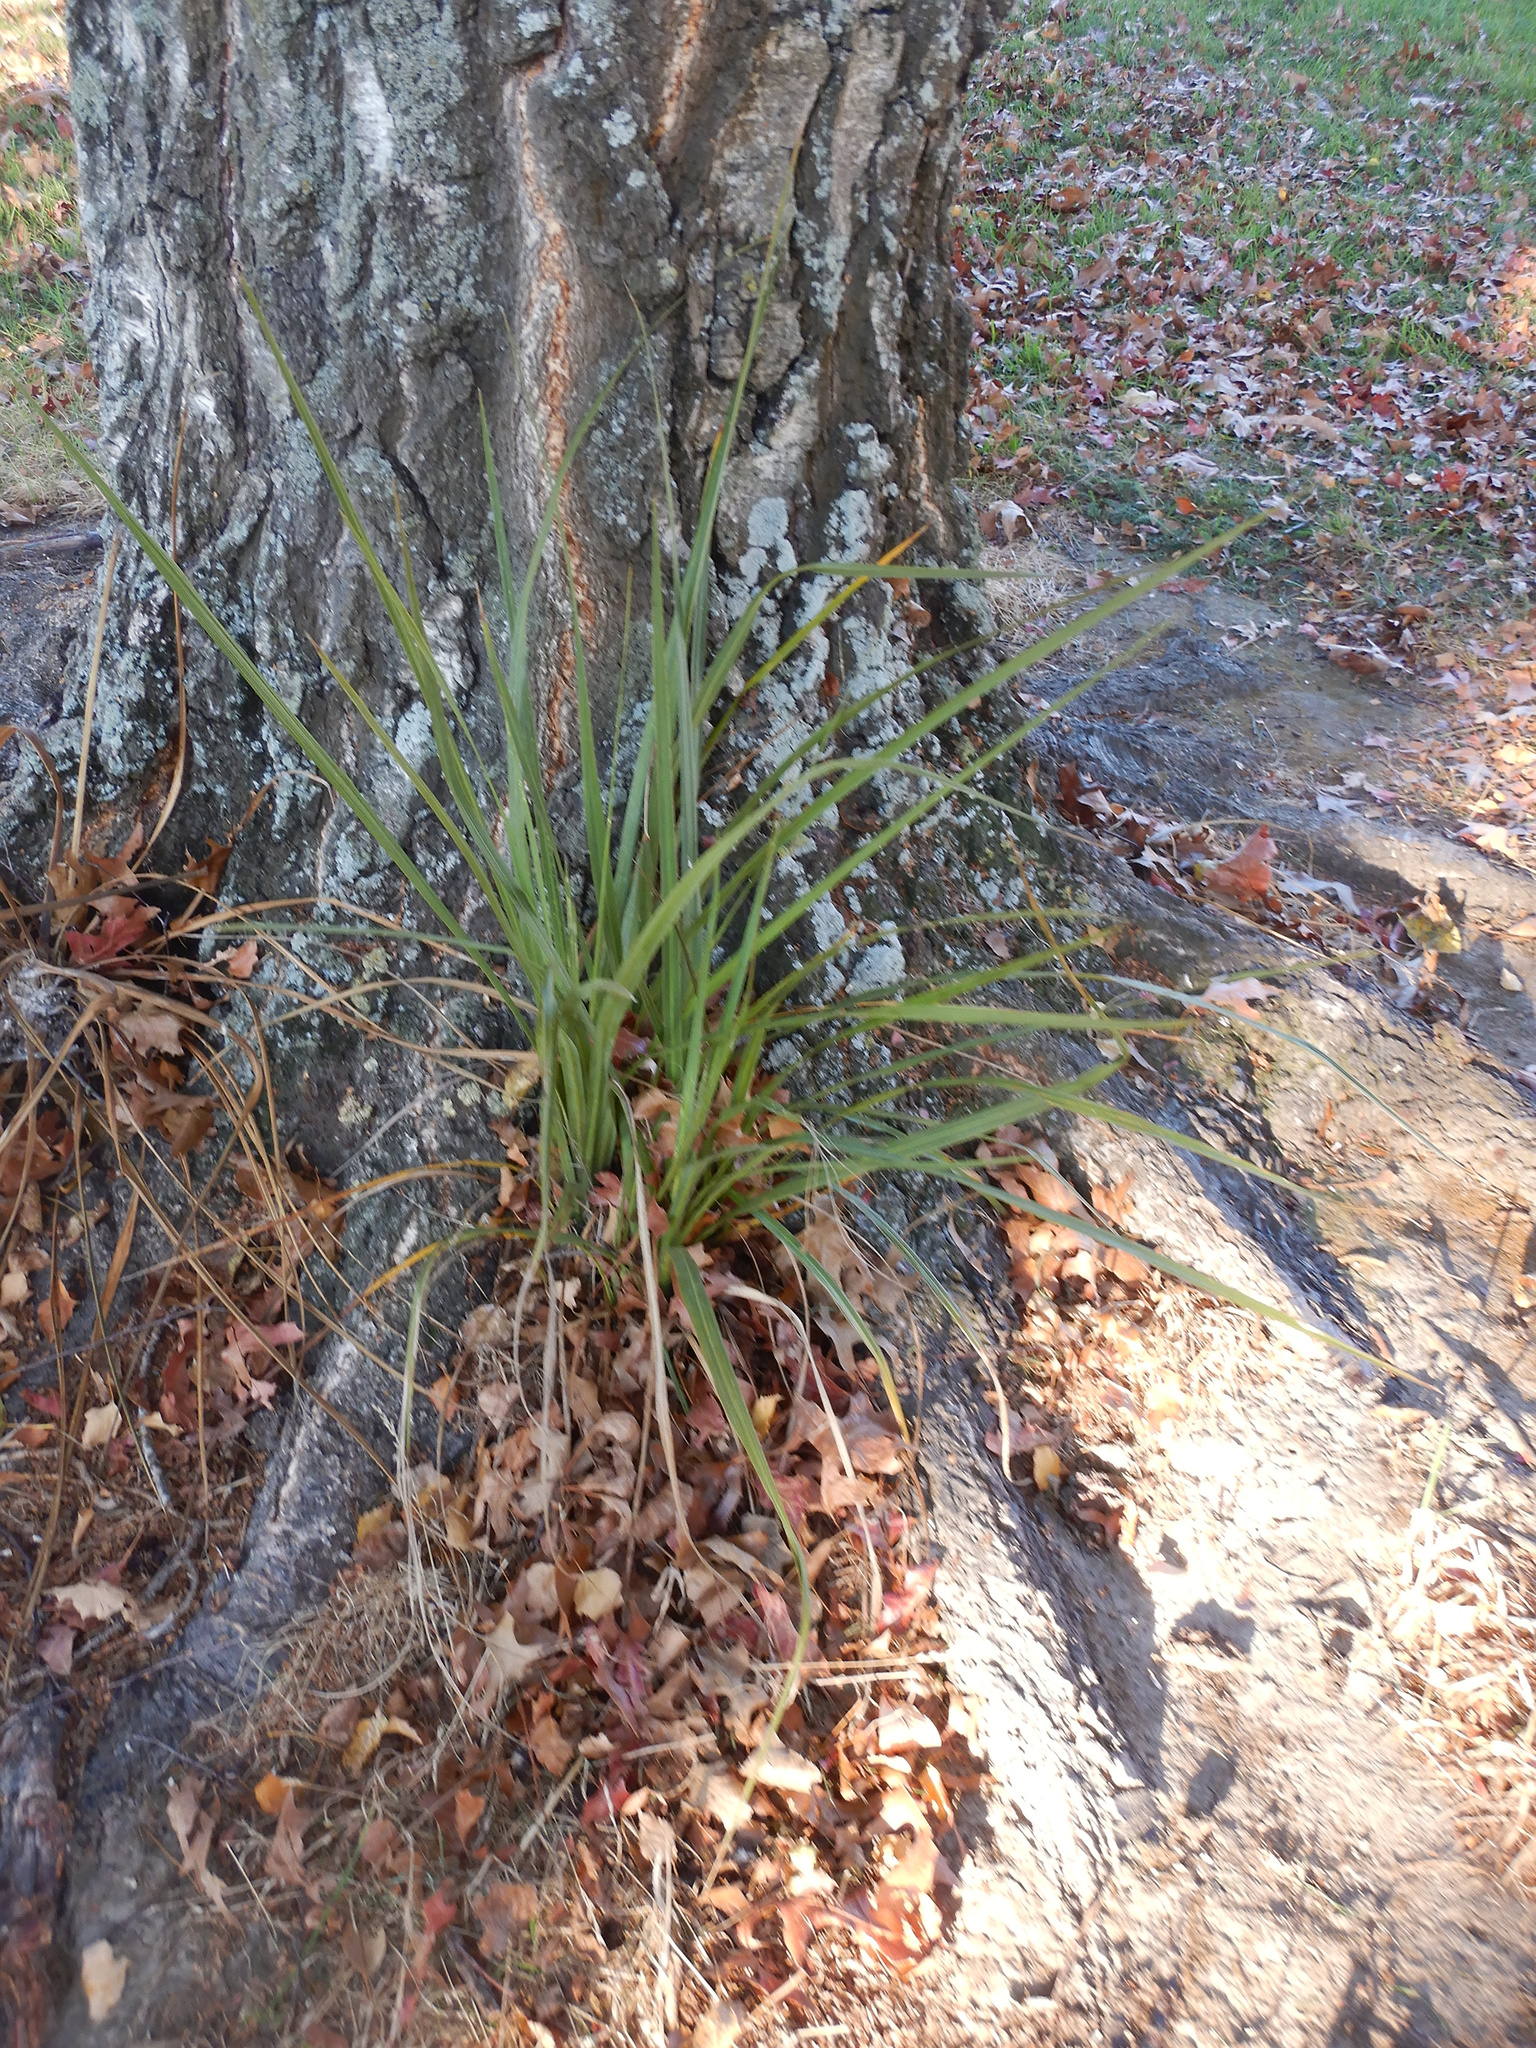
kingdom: Plantae
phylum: Tracheophyta
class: Liliopsida
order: Asparagales
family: Asparagaceae
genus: Cordyline
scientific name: Cordyline australis
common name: Cabbage-palm
